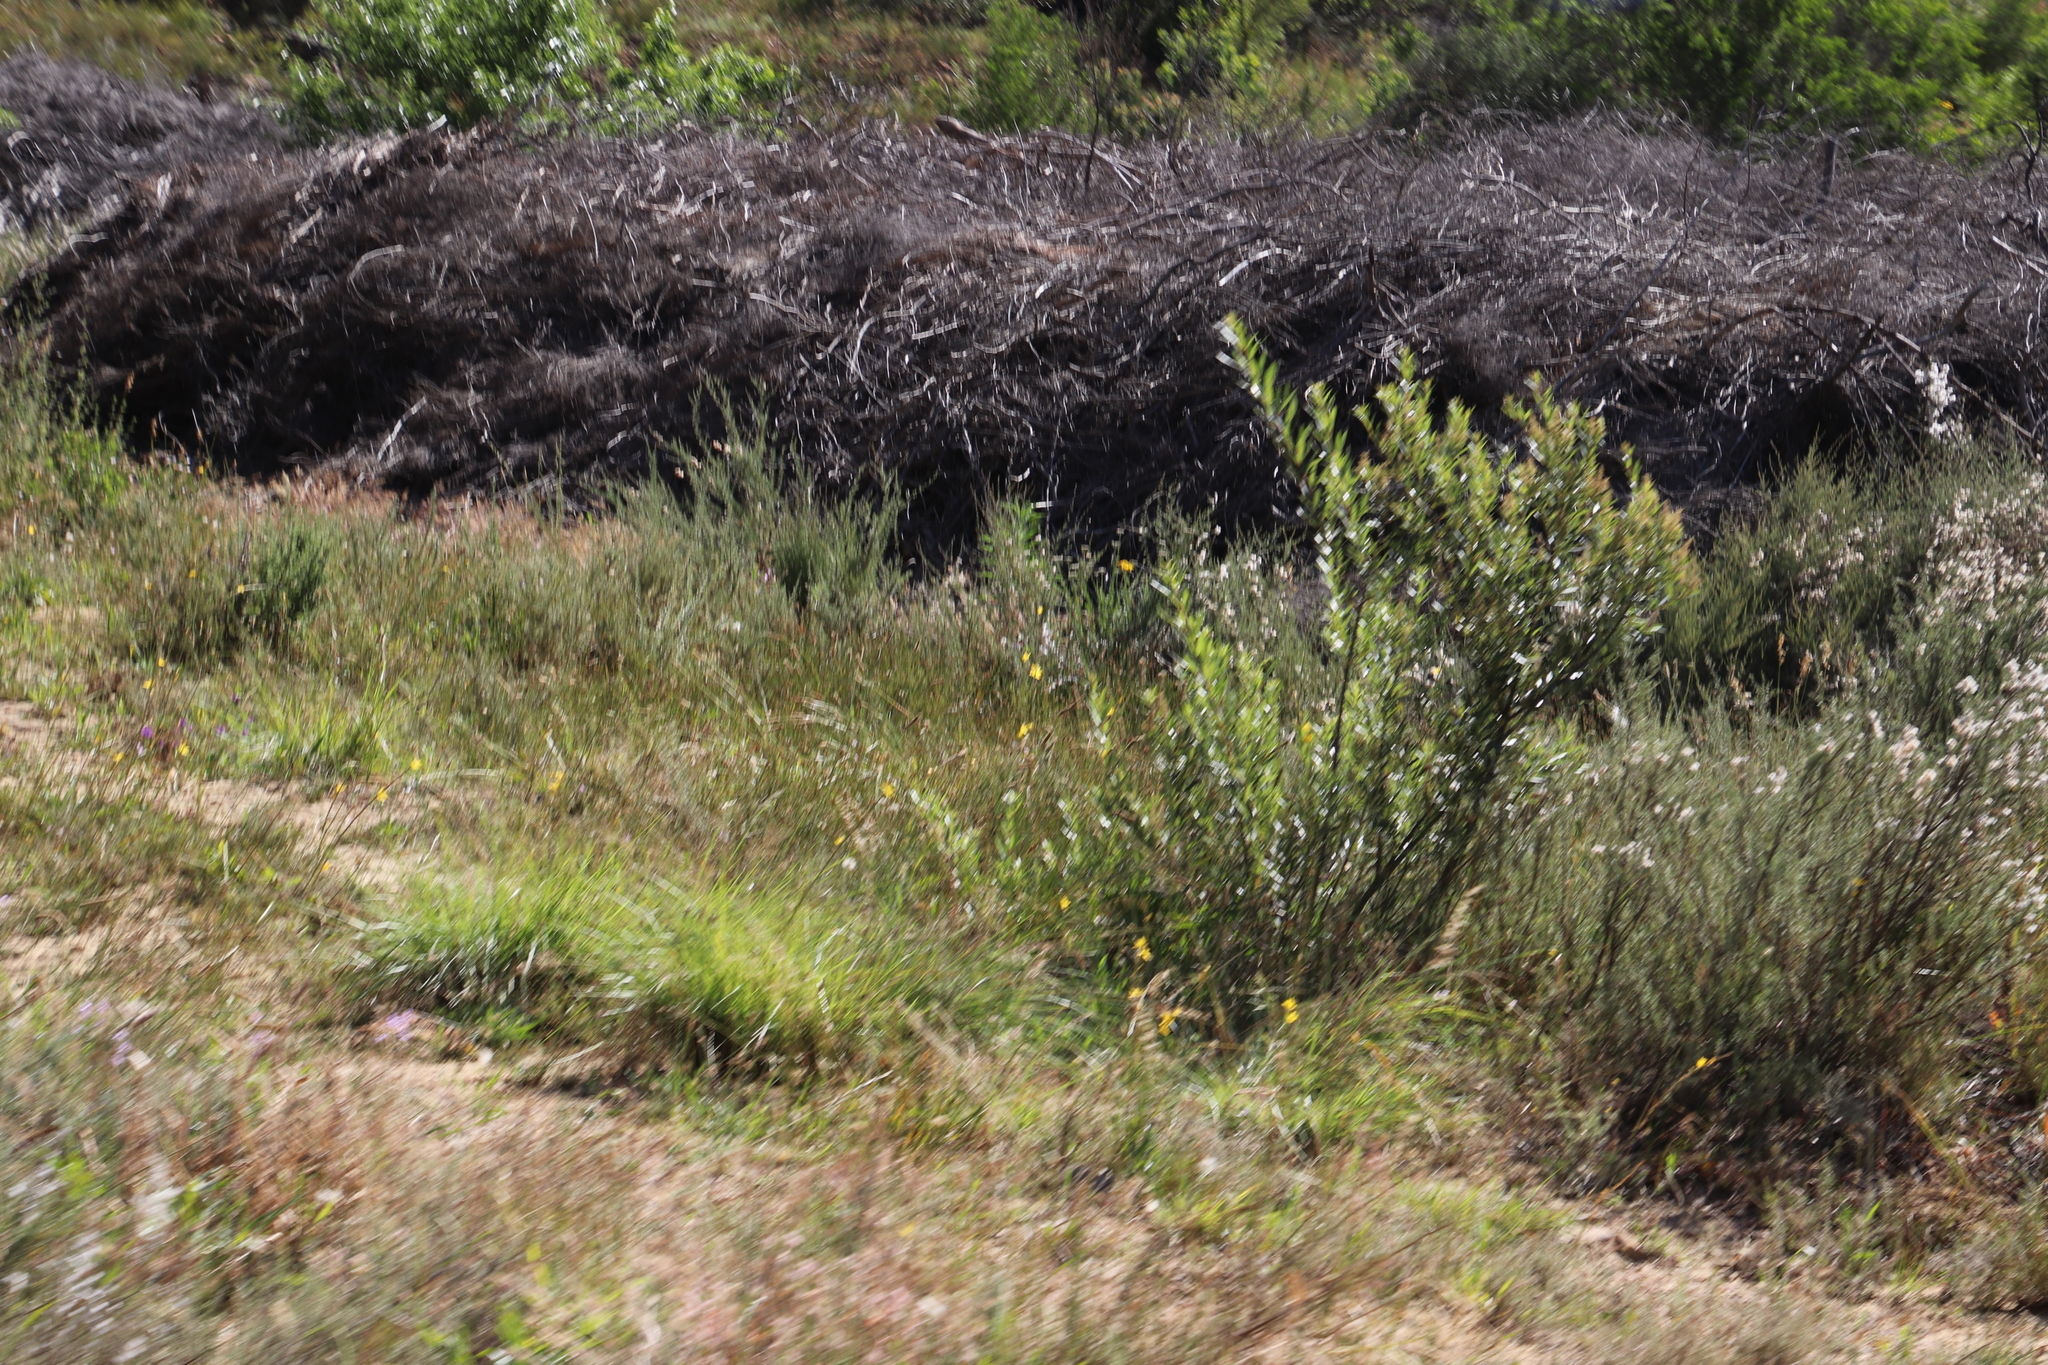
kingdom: Plantae
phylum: Tracheophyta
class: Liliopsida
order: Asparagales
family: Iridaceae
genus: Moraea
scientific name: Moraea lewisiae
